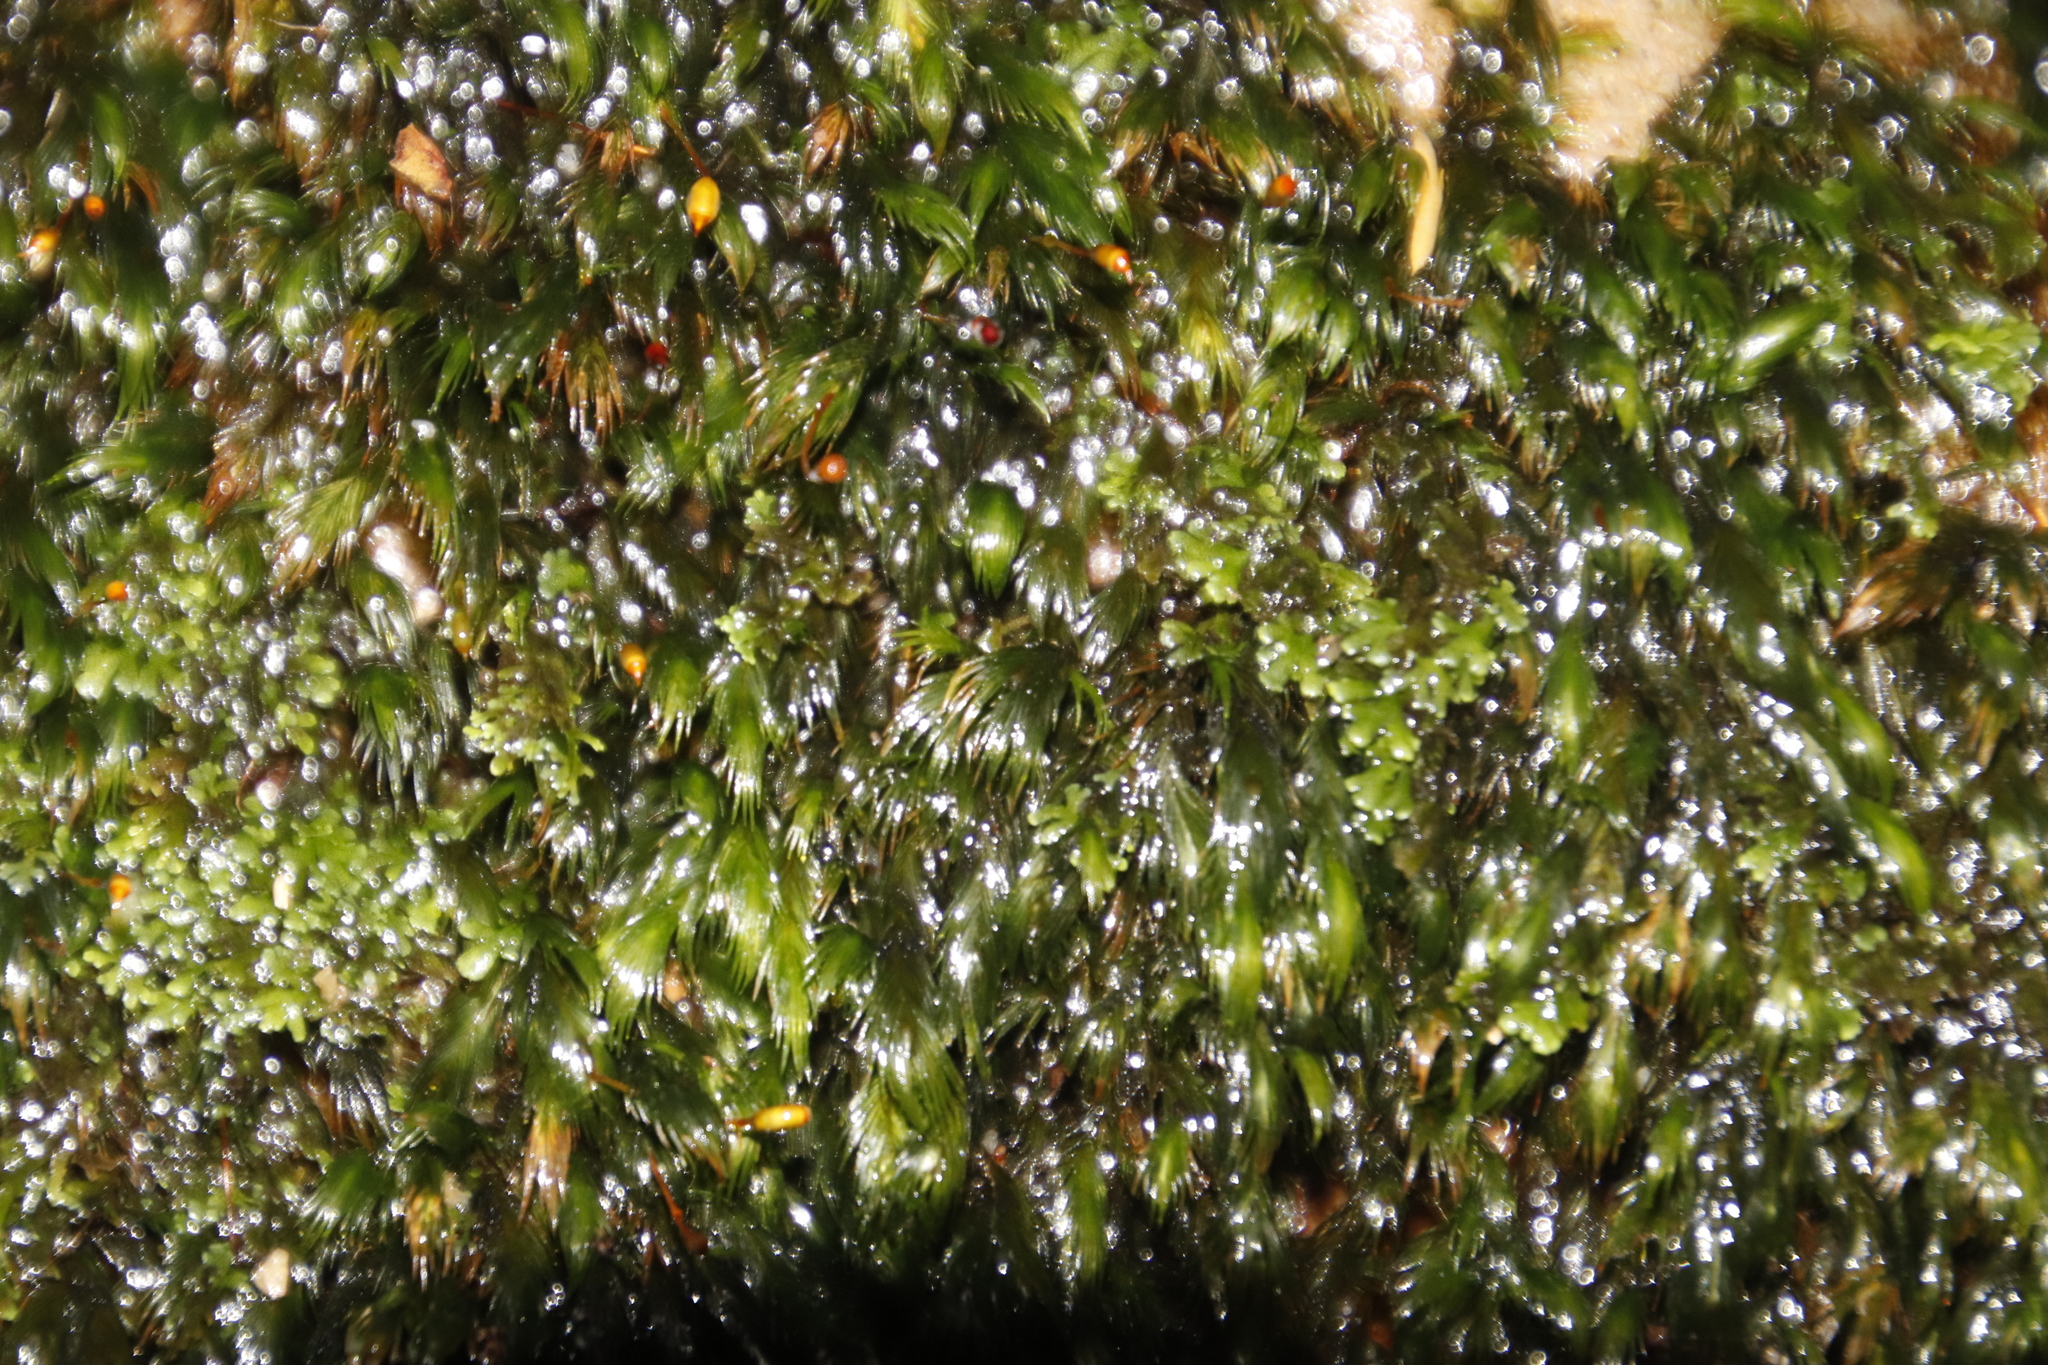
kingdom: Plantae
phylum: Bryophyta
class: Bryopsida
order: Dicranales
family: Fissidentaceae
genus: Fissidens
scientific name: Fissidens fasciculatus
